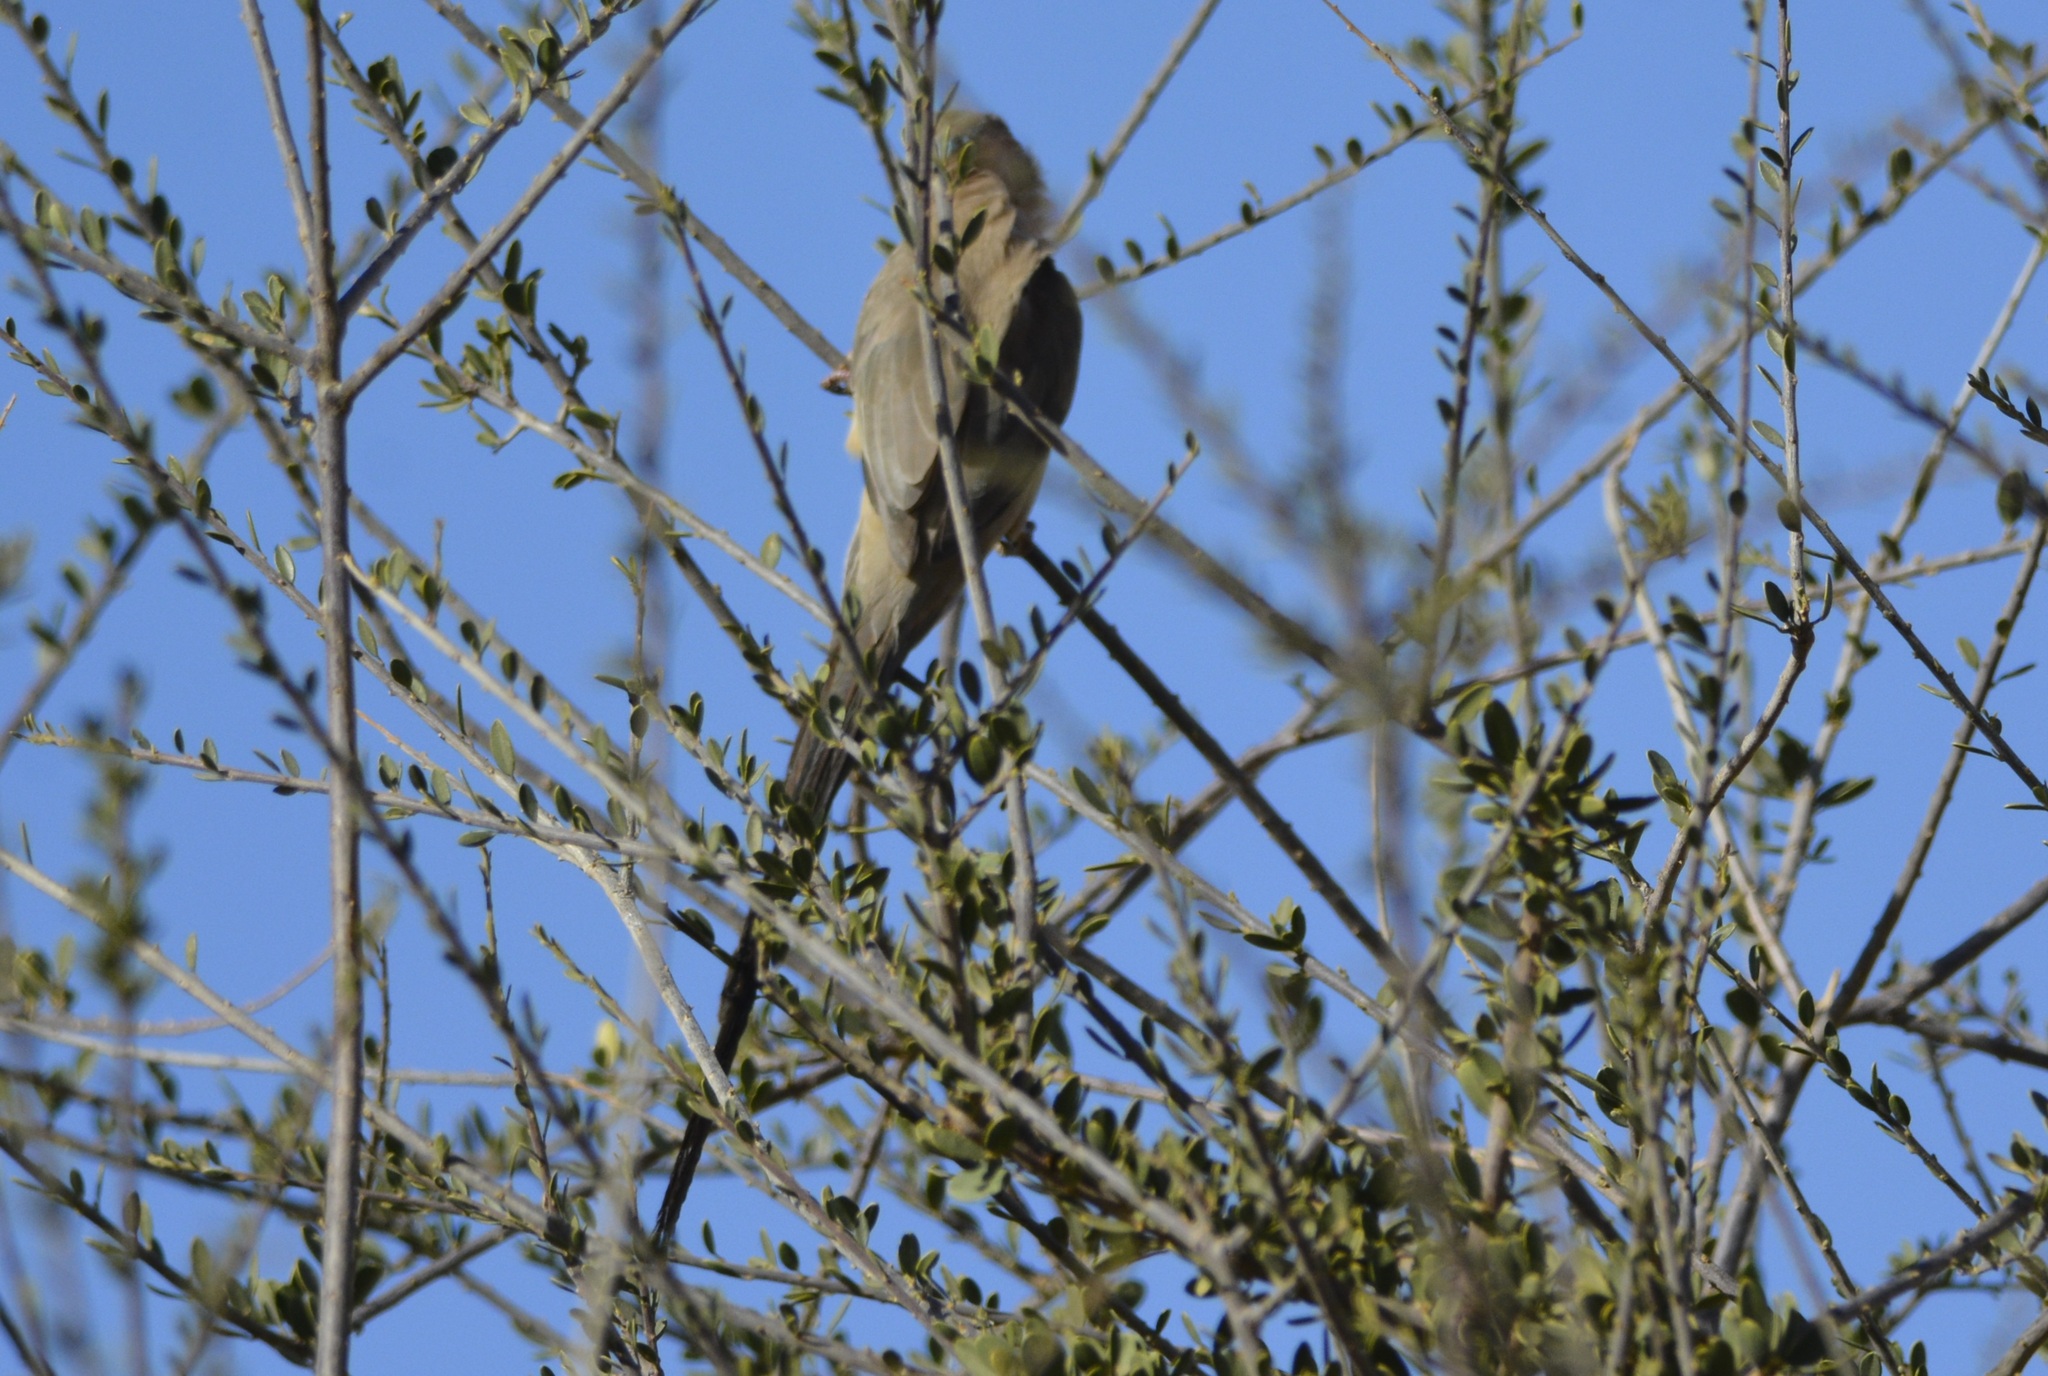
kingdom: Animalia
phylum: Chordata
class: Aves
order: Coliiformes
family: Coliidae
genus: Urocolius
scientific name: Urocolius macrourus
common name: Blue-naped mousebird
